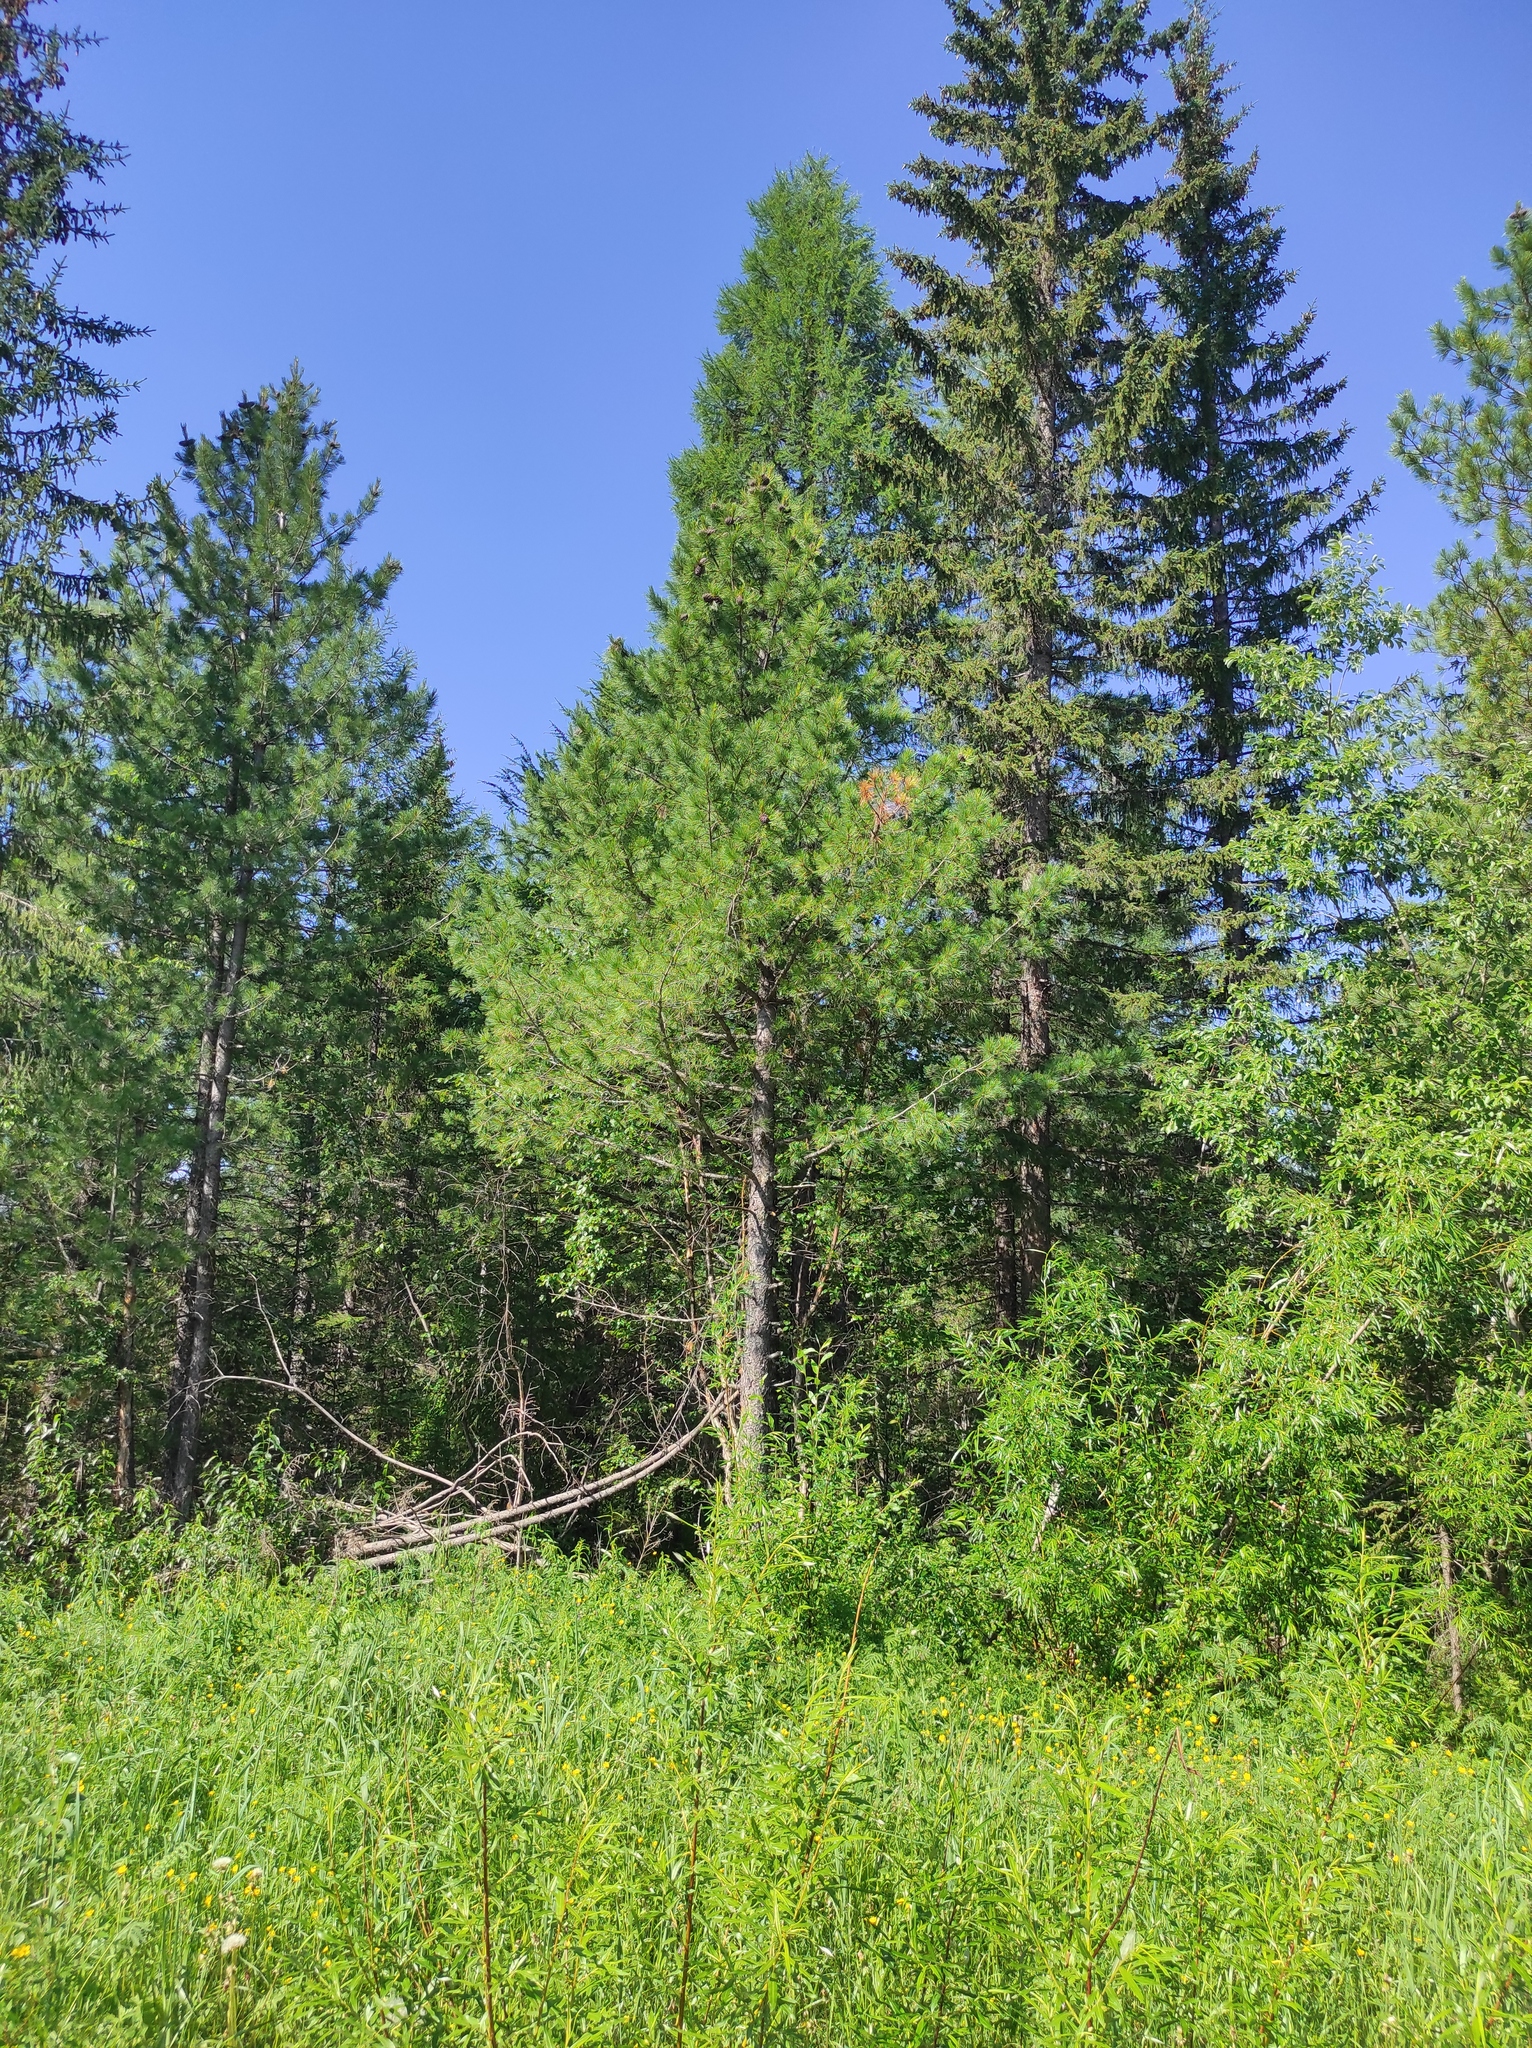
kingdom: Plantae
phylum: Tracheophyta
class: Pinopsida
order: Pinales
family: Pinaceae
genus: Pinus
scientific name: Pinus sibirica
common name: Siberian pine
